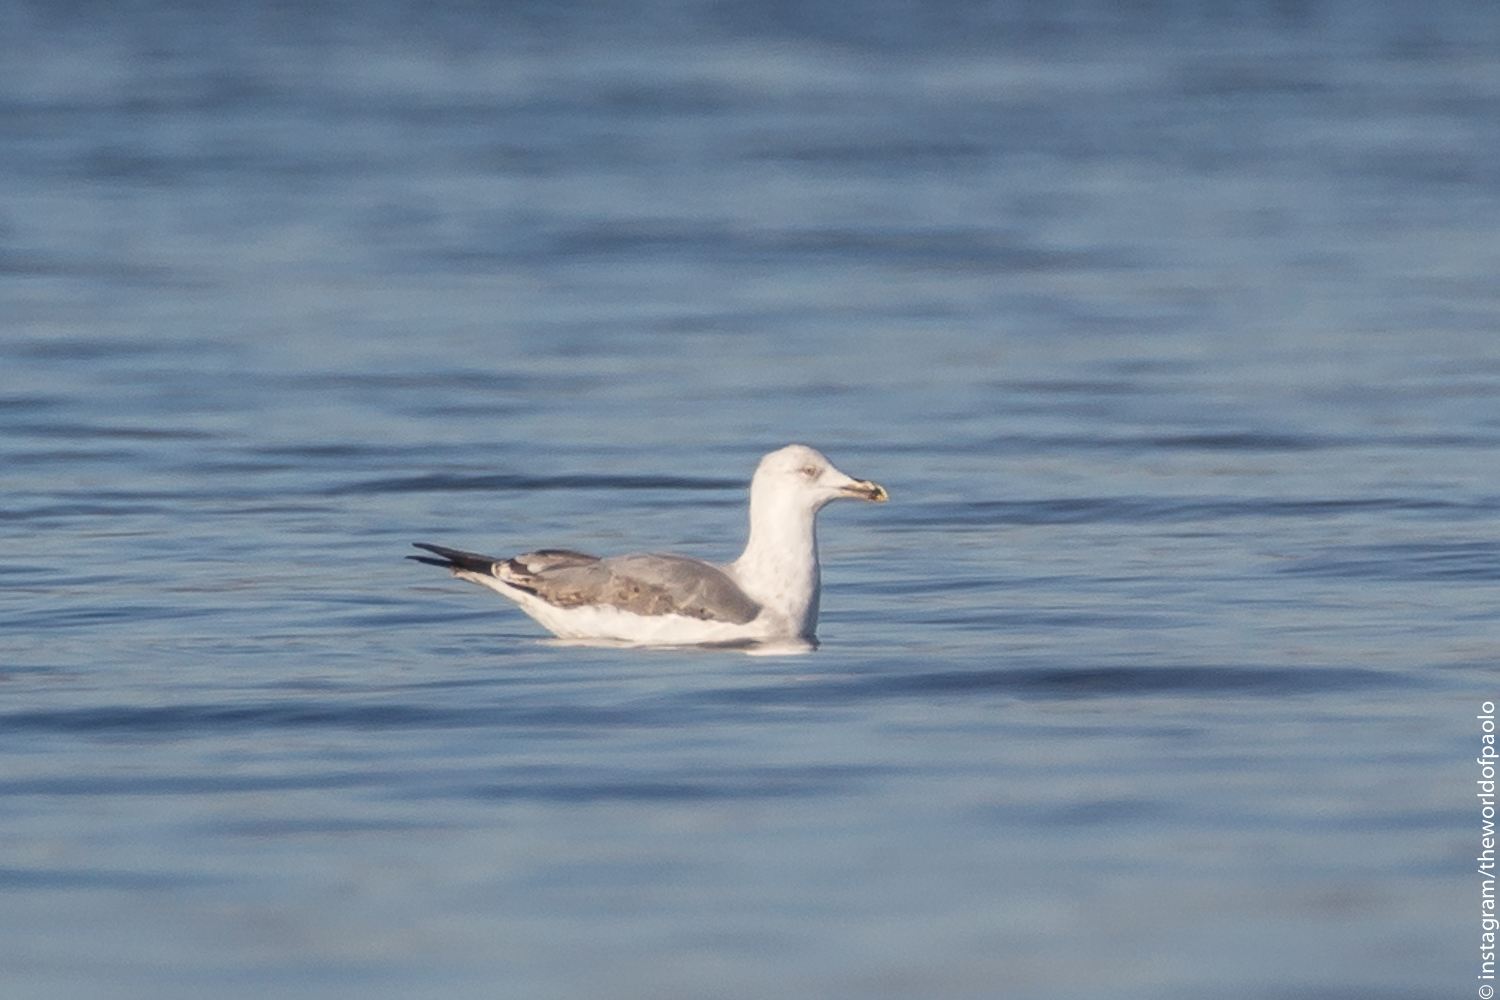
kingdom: Animalia
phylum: Chordata
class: Aves
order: Charadriiformes
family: Laridae
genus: Larus
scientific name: Larus argentatus
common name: Herring gull
